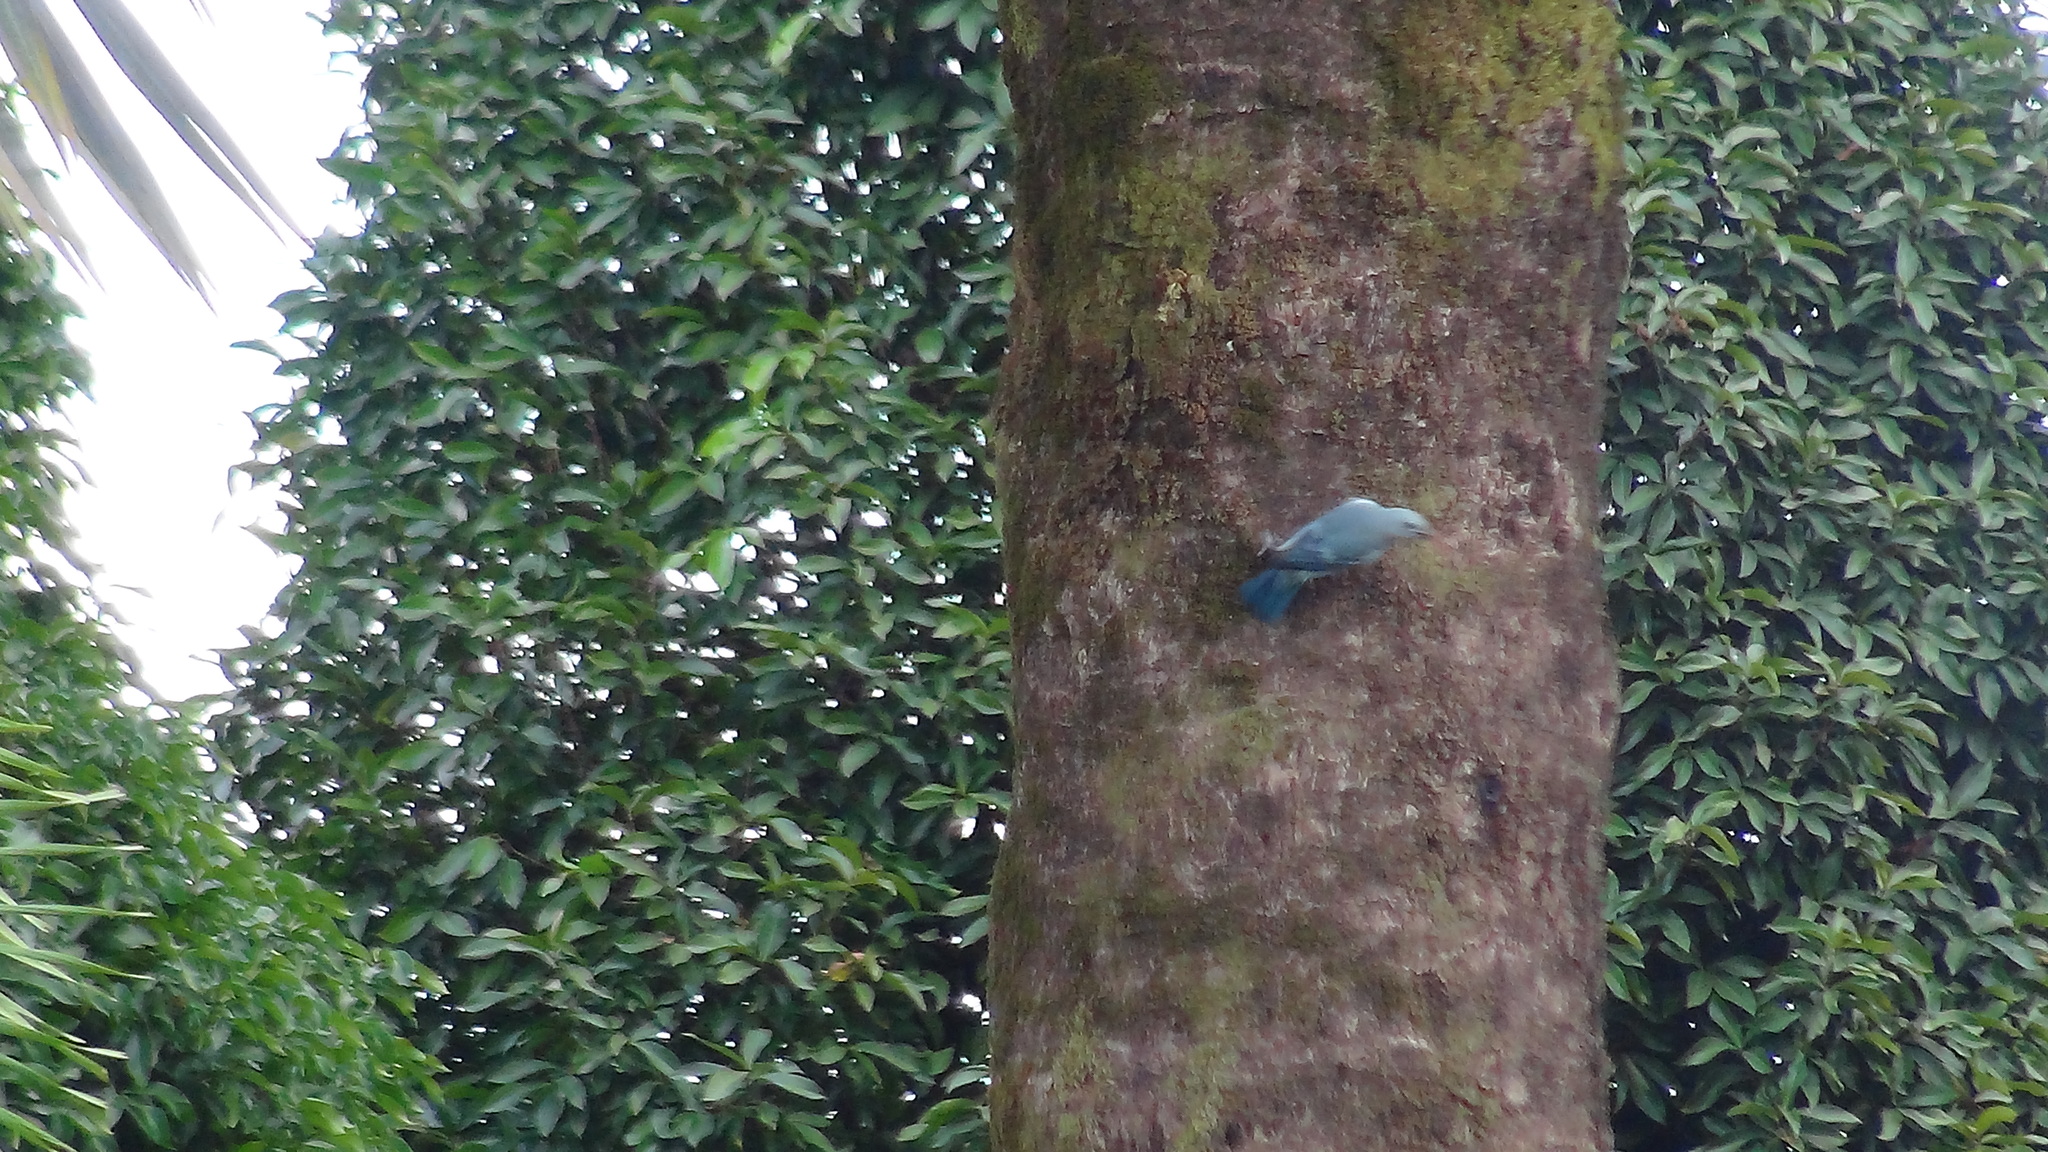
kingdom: Animalia
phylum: Chordata
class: Aves
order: Passeriformes
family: Thraupidae
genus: Thraupis
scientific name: Thraupis episcopus
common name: Blue-grey tanager
